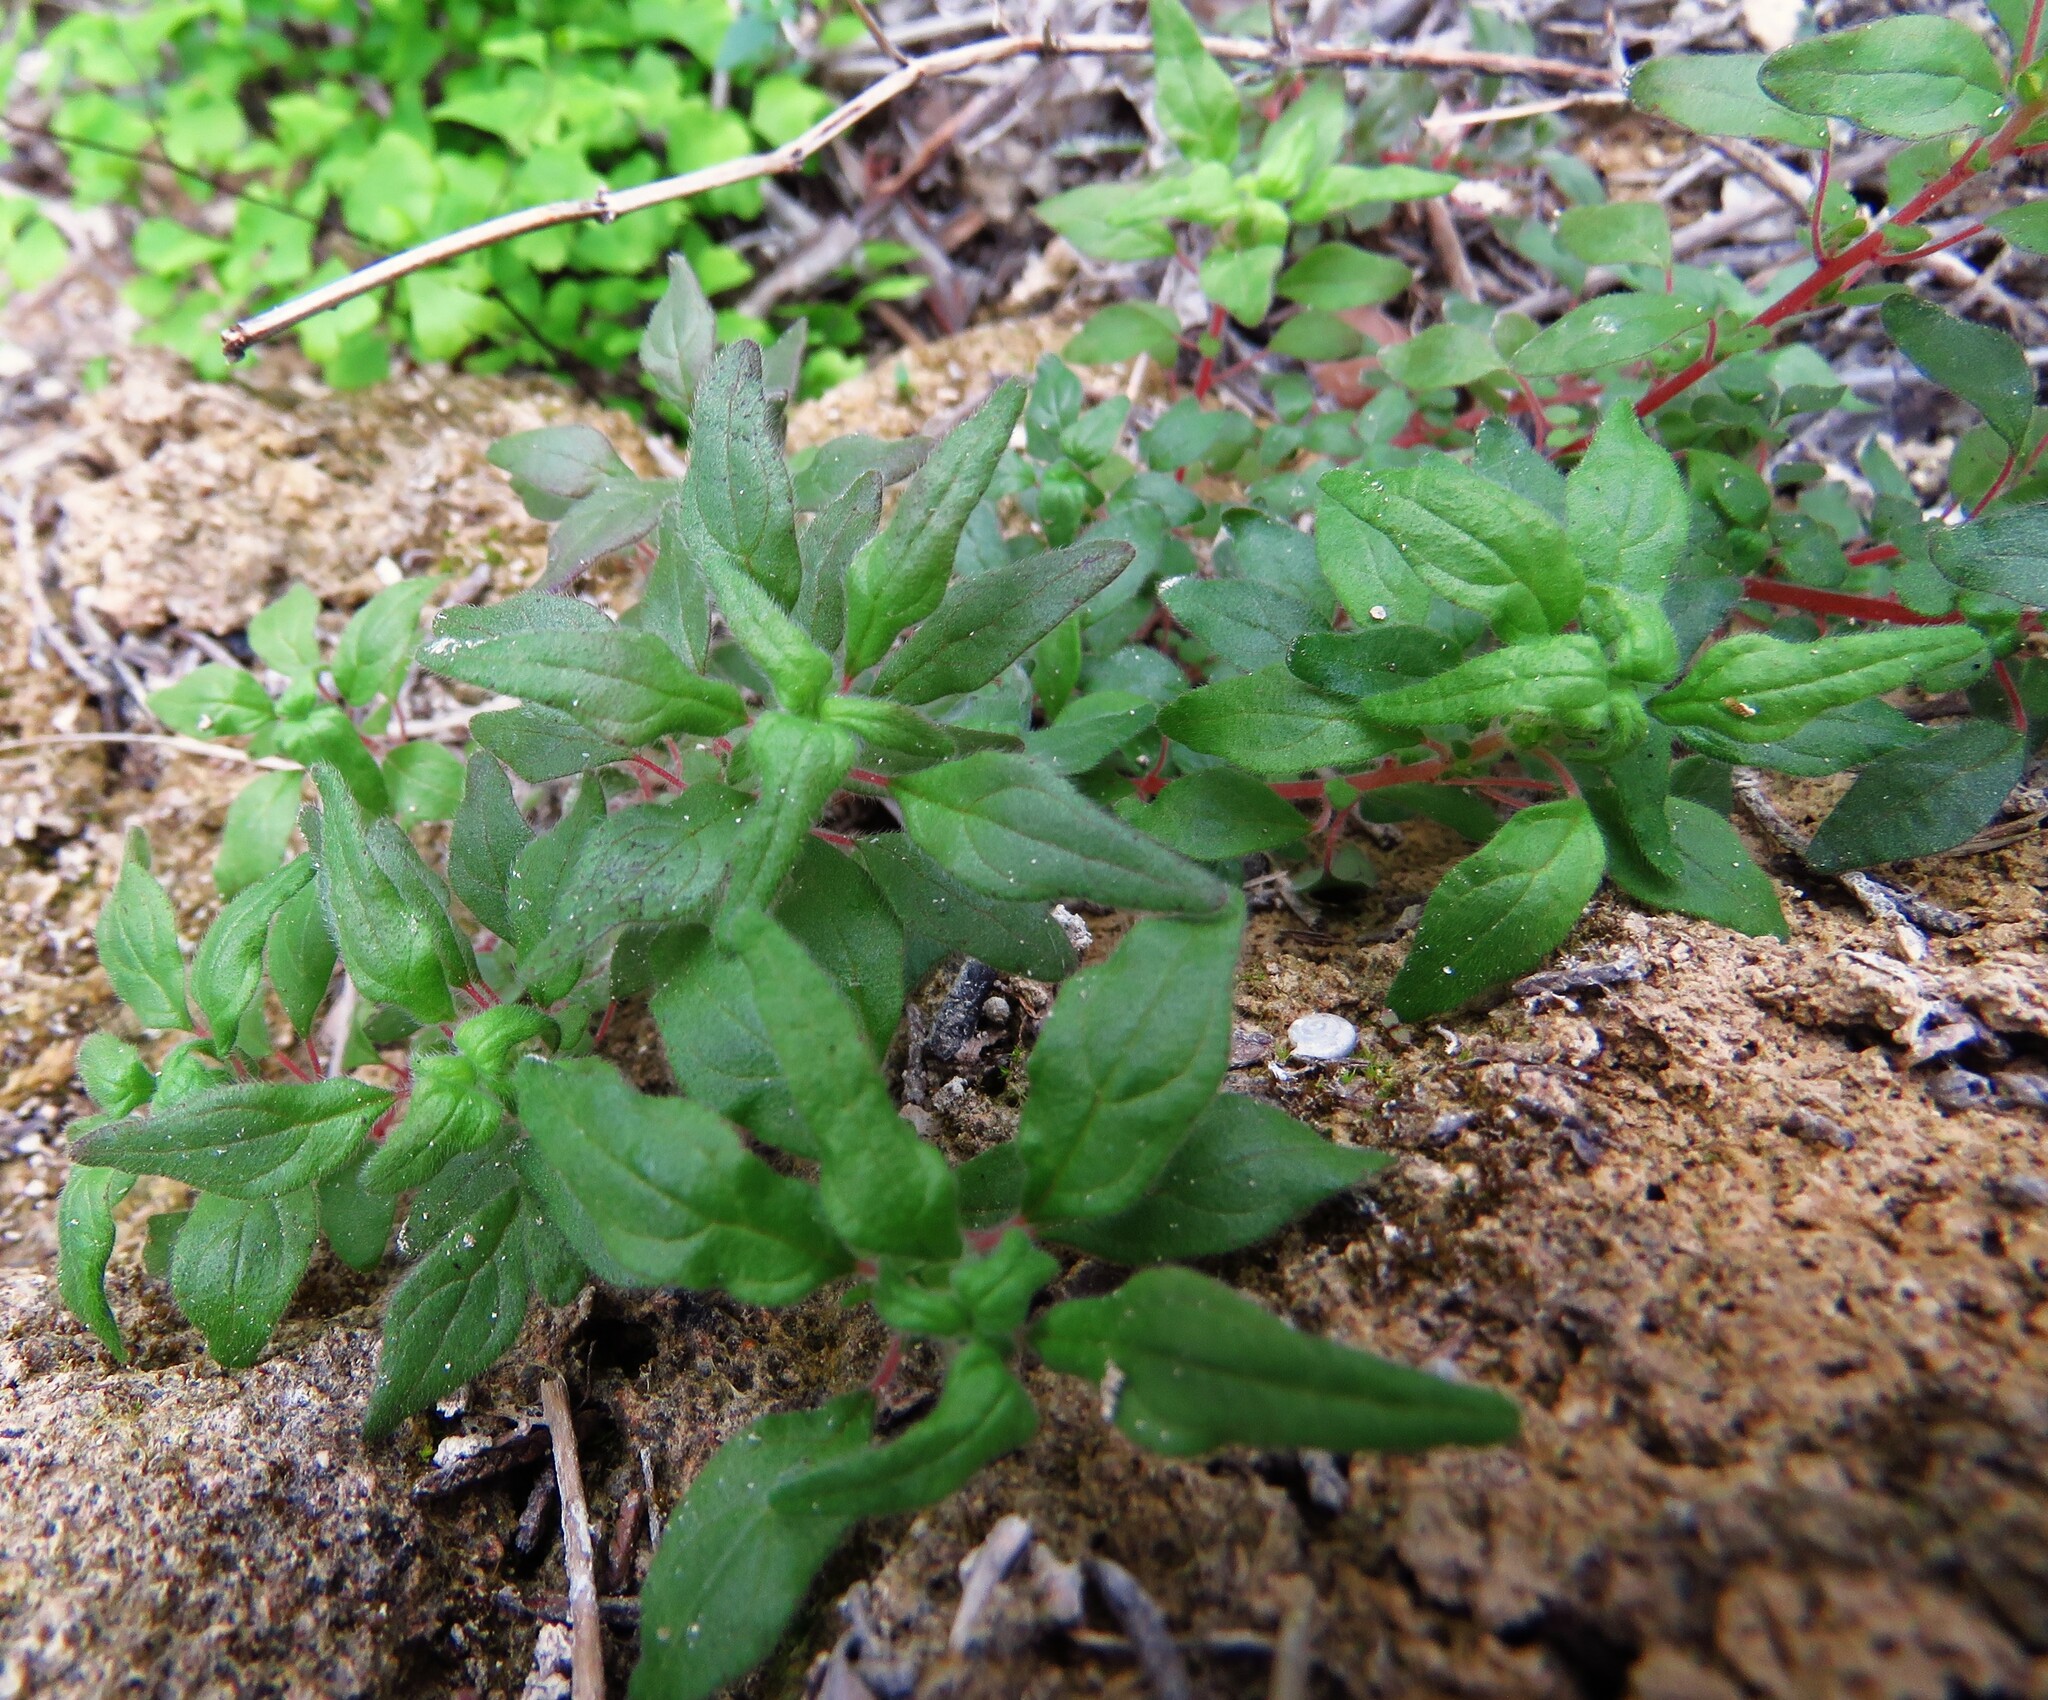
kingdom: Plantae
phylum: Tracheophyta
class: Magnoliopsida
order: Rosales
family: Urticaceae
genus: Parietaria
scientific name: Parietaria pensylvanica
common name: Pennsylvania pellitory
